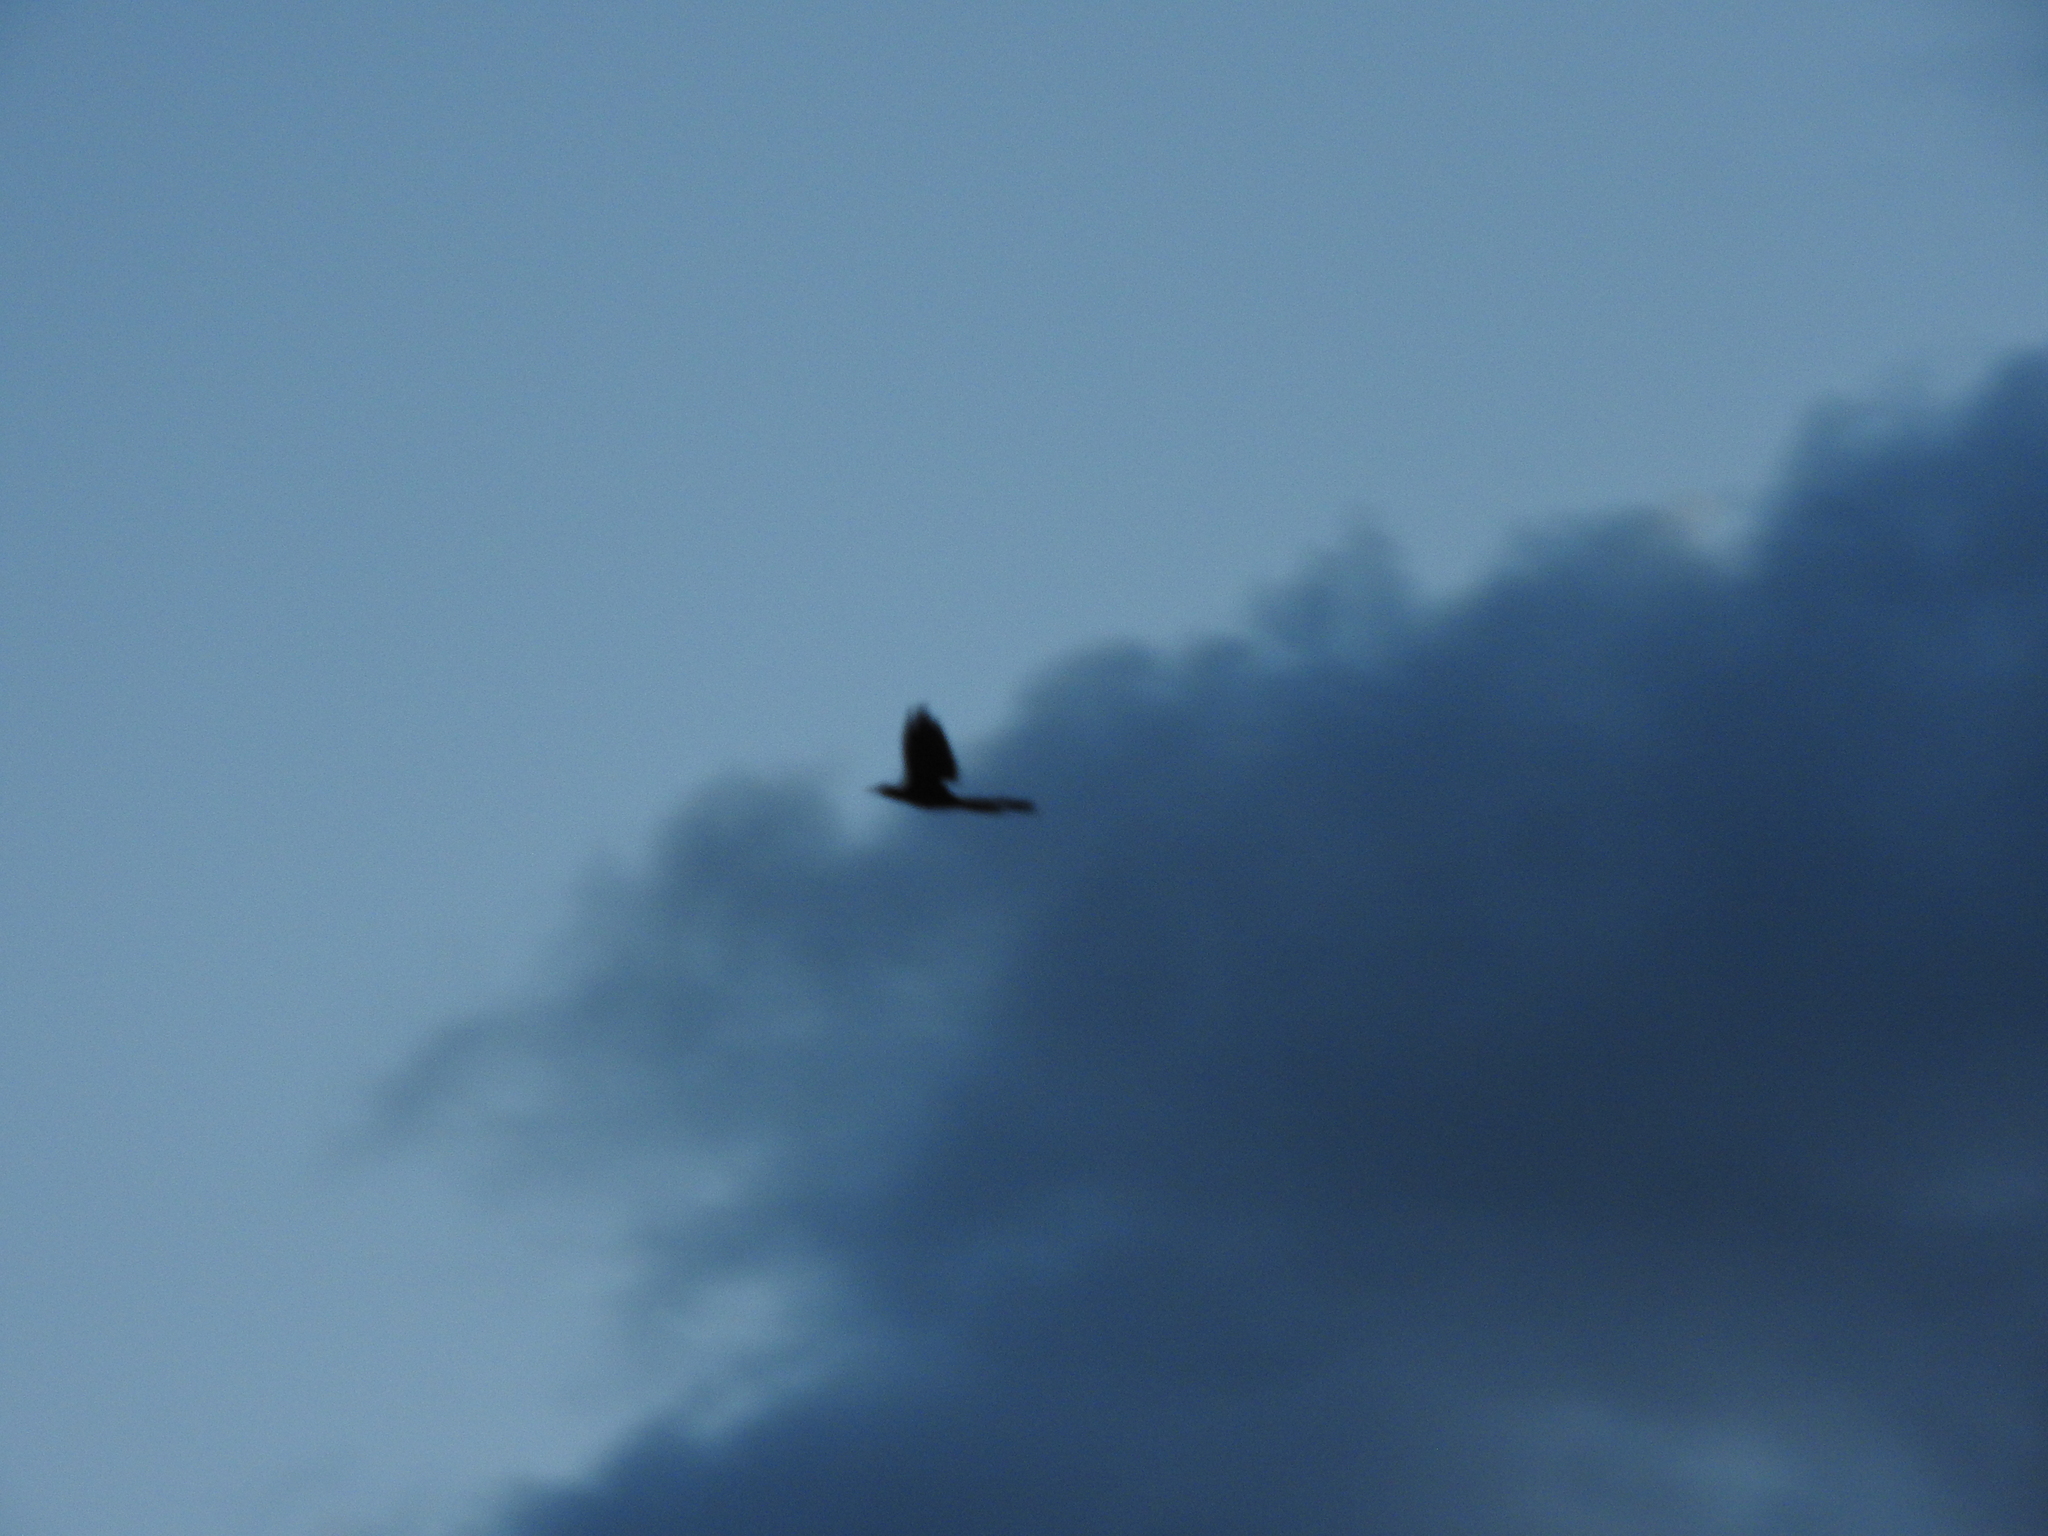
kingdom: Animalia
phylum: Chordata
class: Aves
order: Passeriformes
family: Icteridae
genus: Quiscalus
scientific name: Quiscalus mexicanus
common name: Great-tailed grackle
